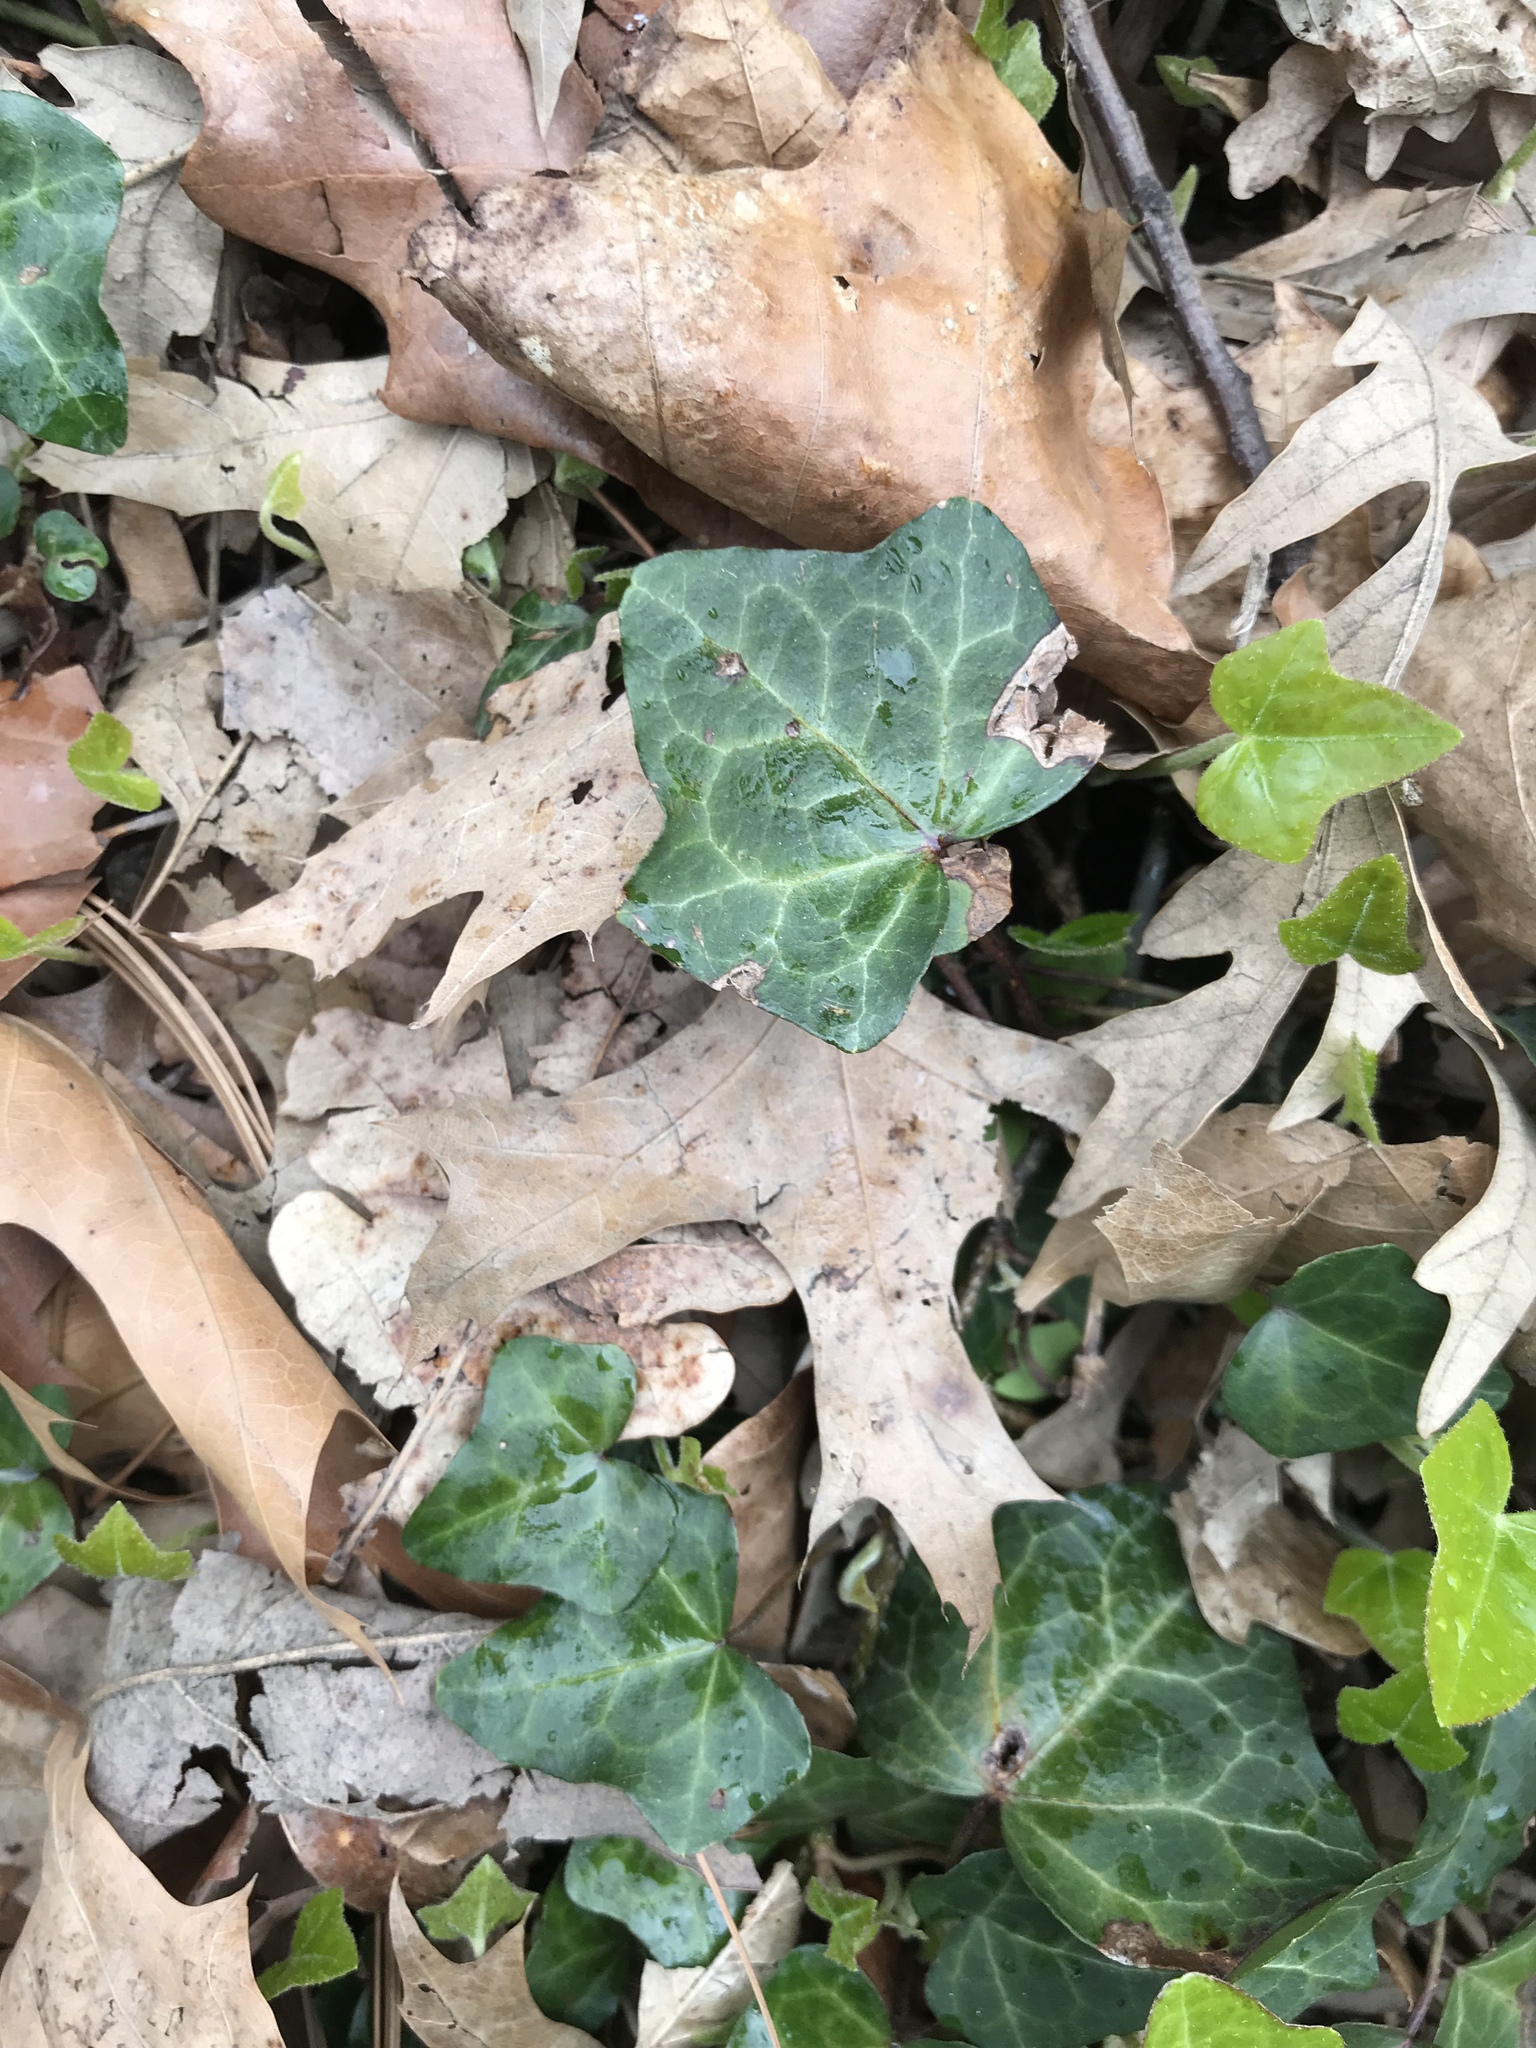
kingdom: Plantae
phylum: Tracheophyta
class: Magnoliopsida
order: Apiales
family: Araliaceae
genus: Hedera
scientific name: Hedera helix
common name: Ivy
